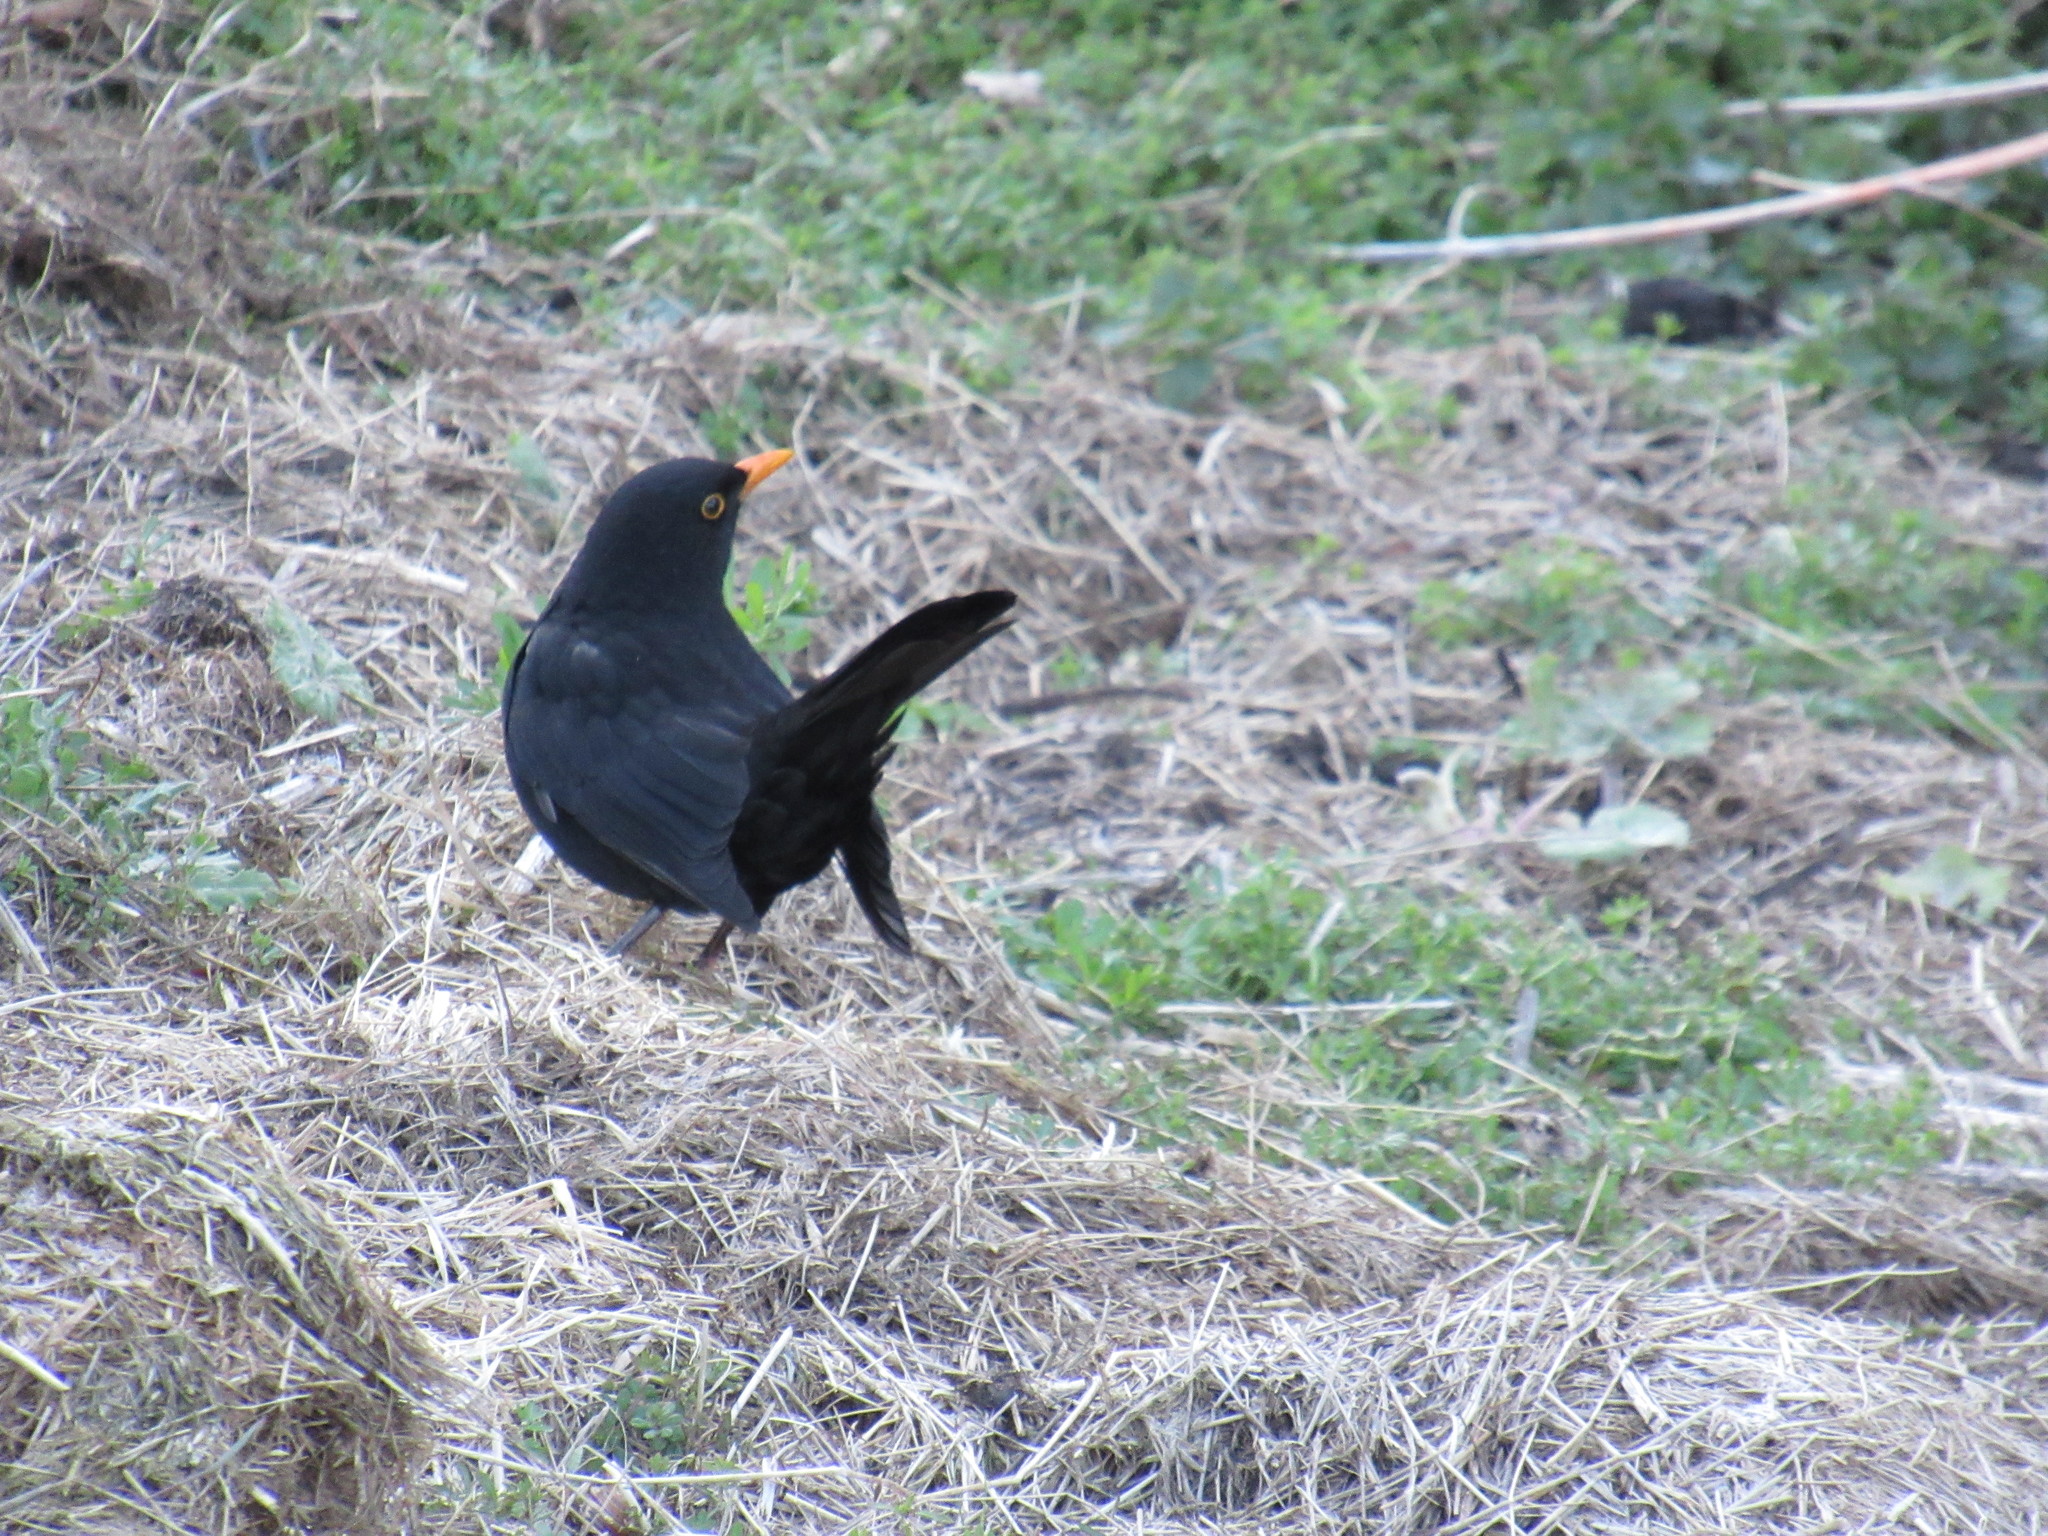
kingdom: Animalia
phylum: Chordata
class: Aves
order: Passeriformes
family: Turdidae
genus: Turdus
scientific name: Turdus merula
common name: Common blackbird
